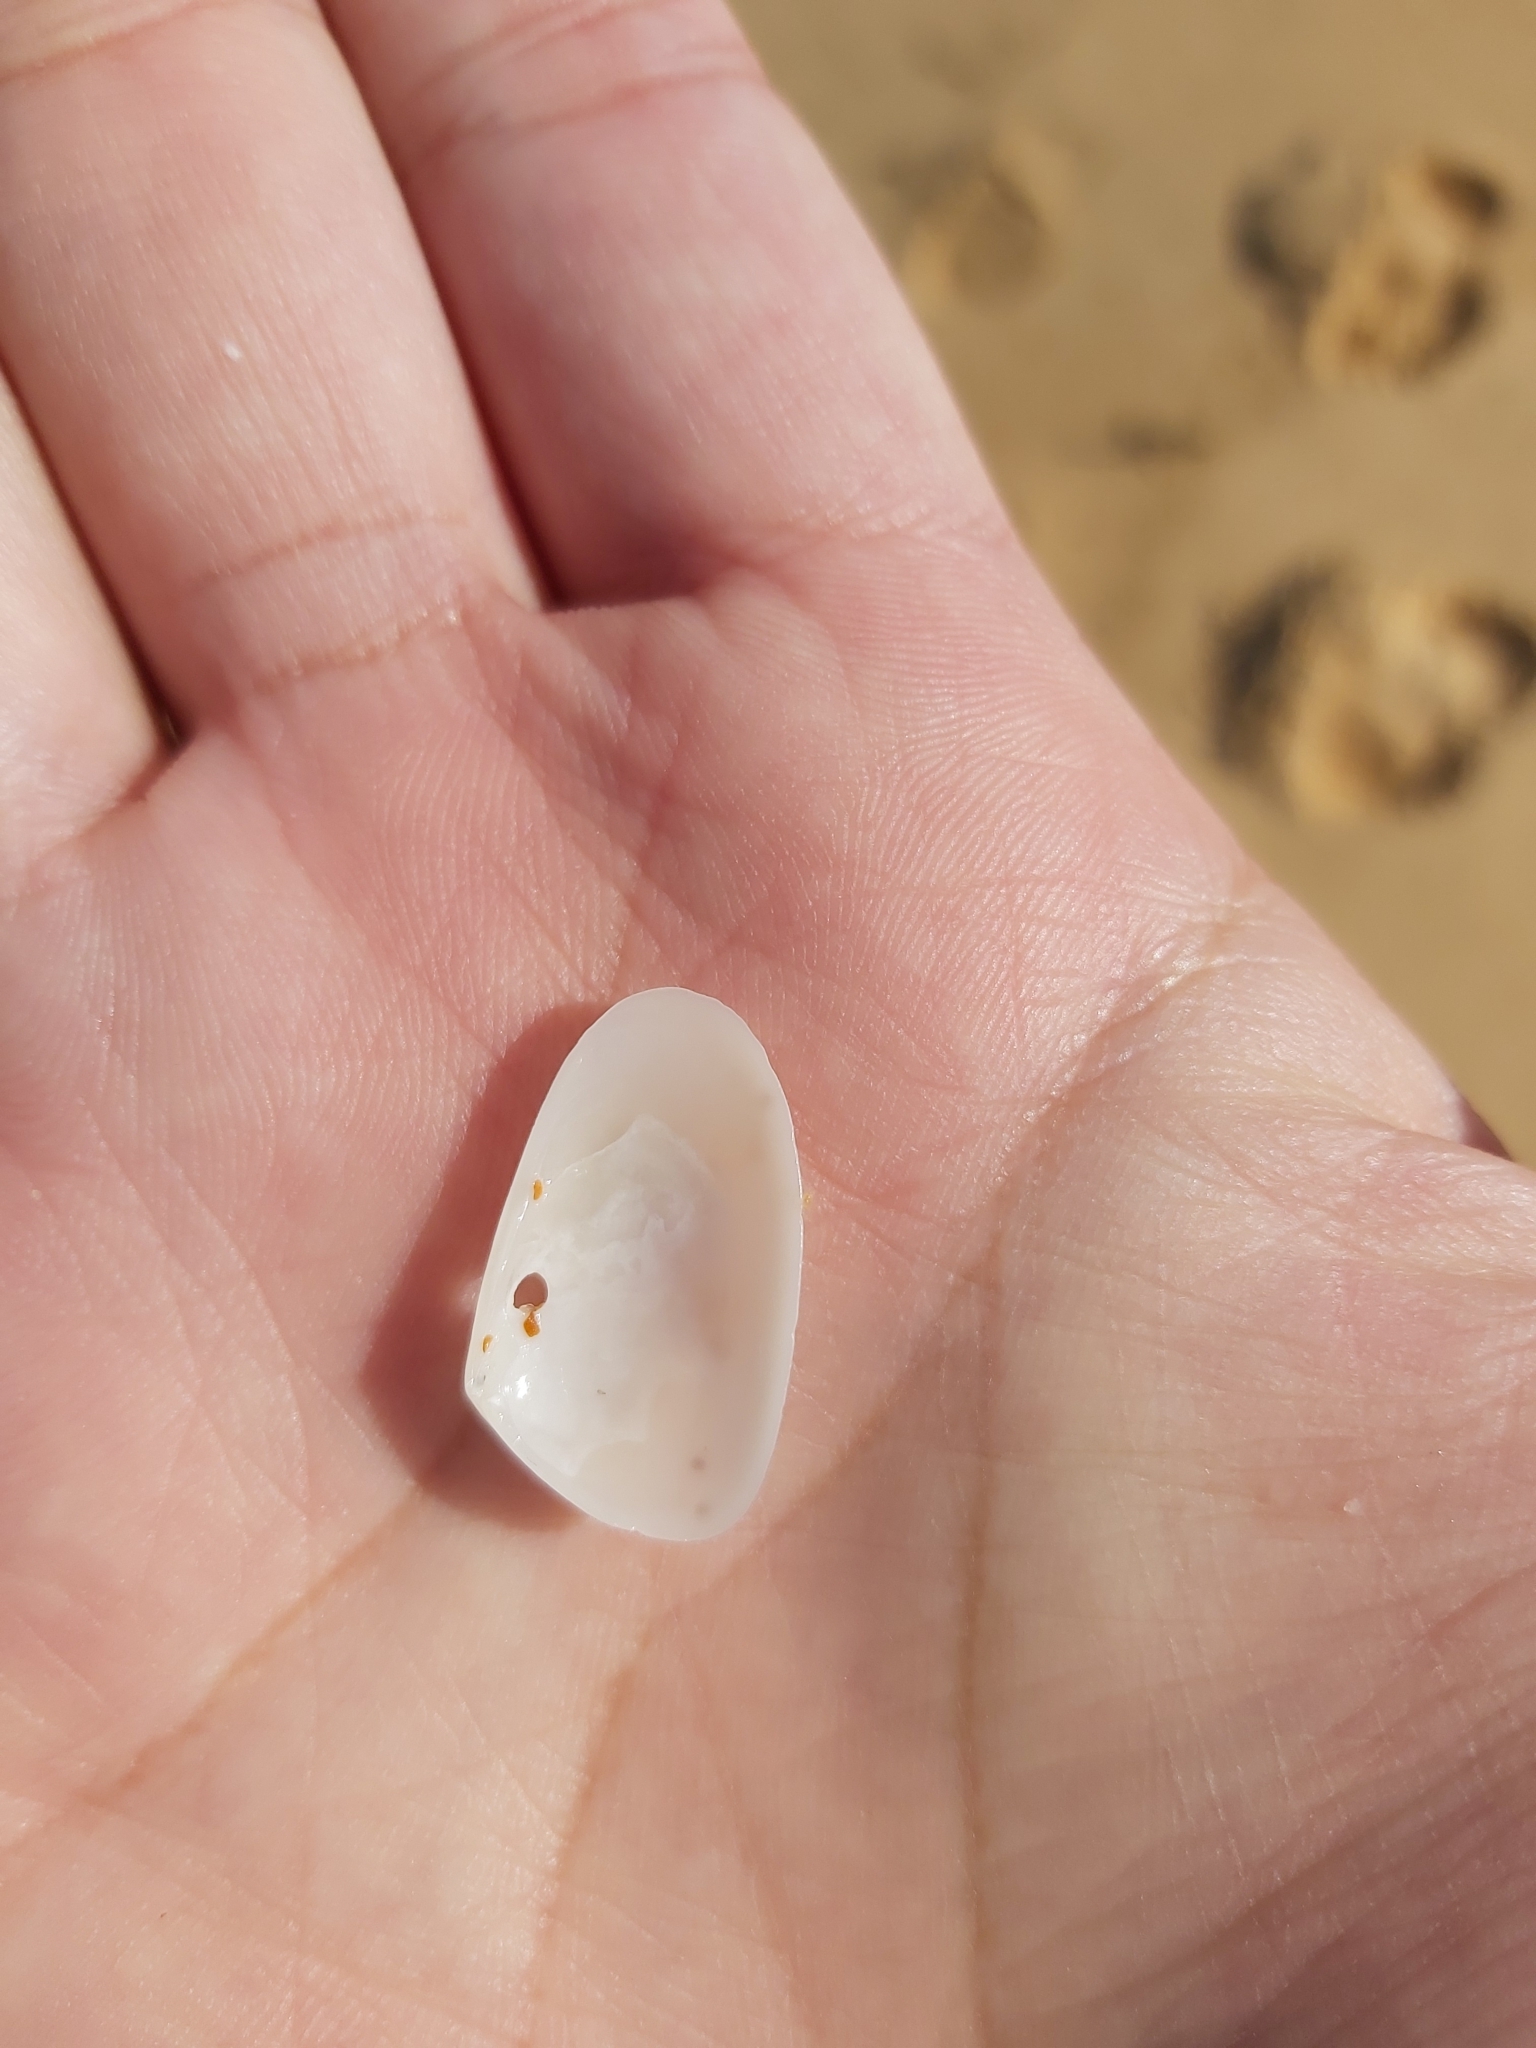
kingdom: Animalia
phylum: Mollusca
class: Bivalvia
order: Venerida
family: Mesodesmatidae
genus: Paphies
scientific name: Paphies angusta
